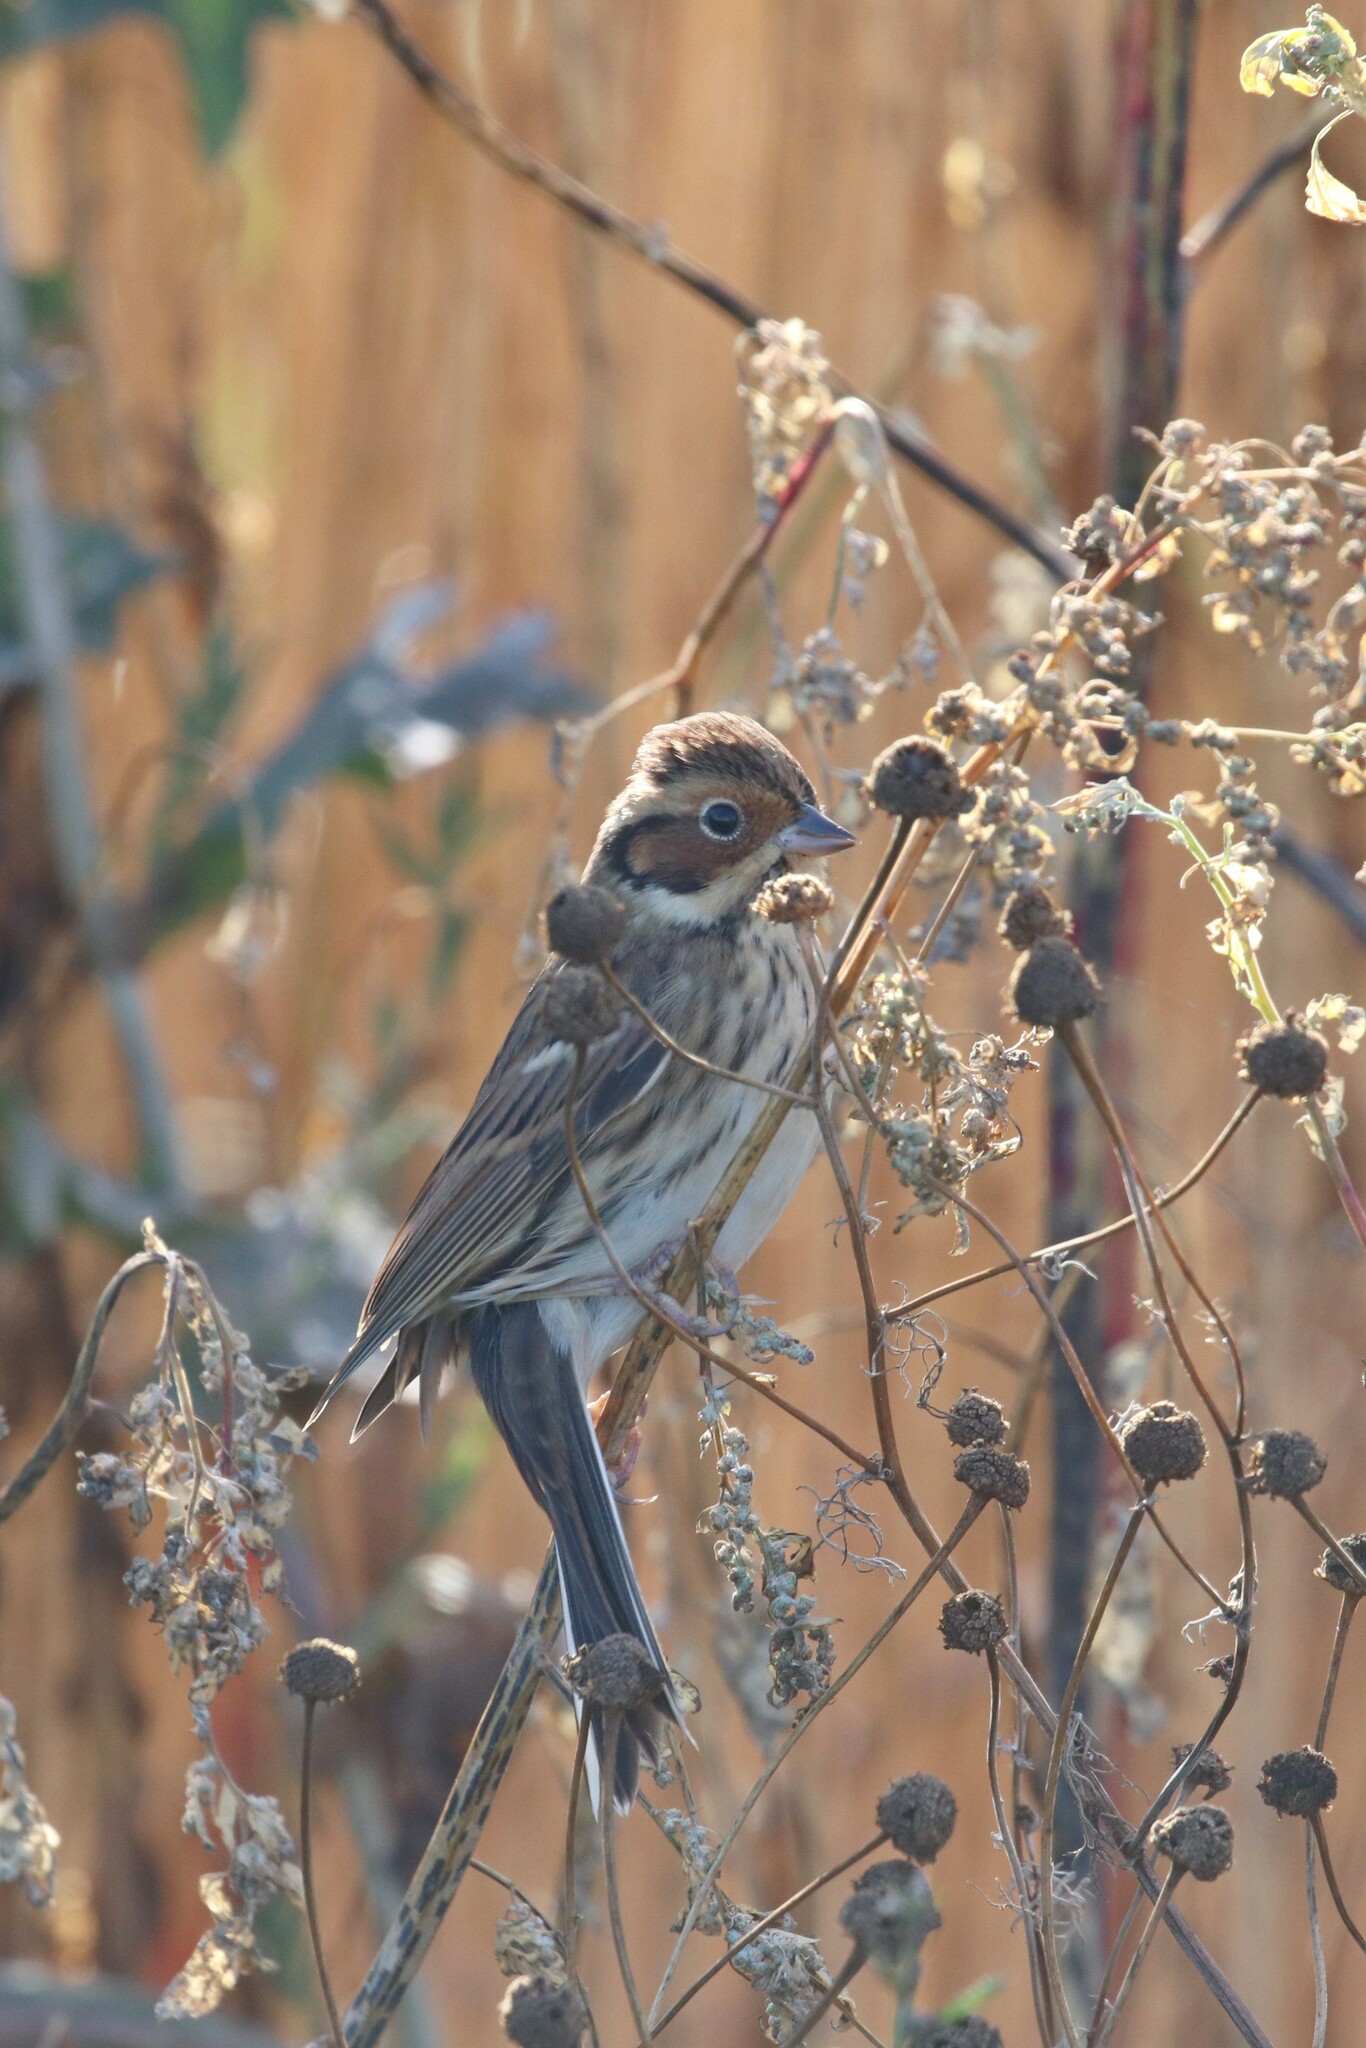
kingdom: Animalia
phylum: Chordata
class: Aves
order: Passeriformes
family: Emberizidae
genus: Emberiza
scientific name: Emberiza pusilla
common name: Little bunting
